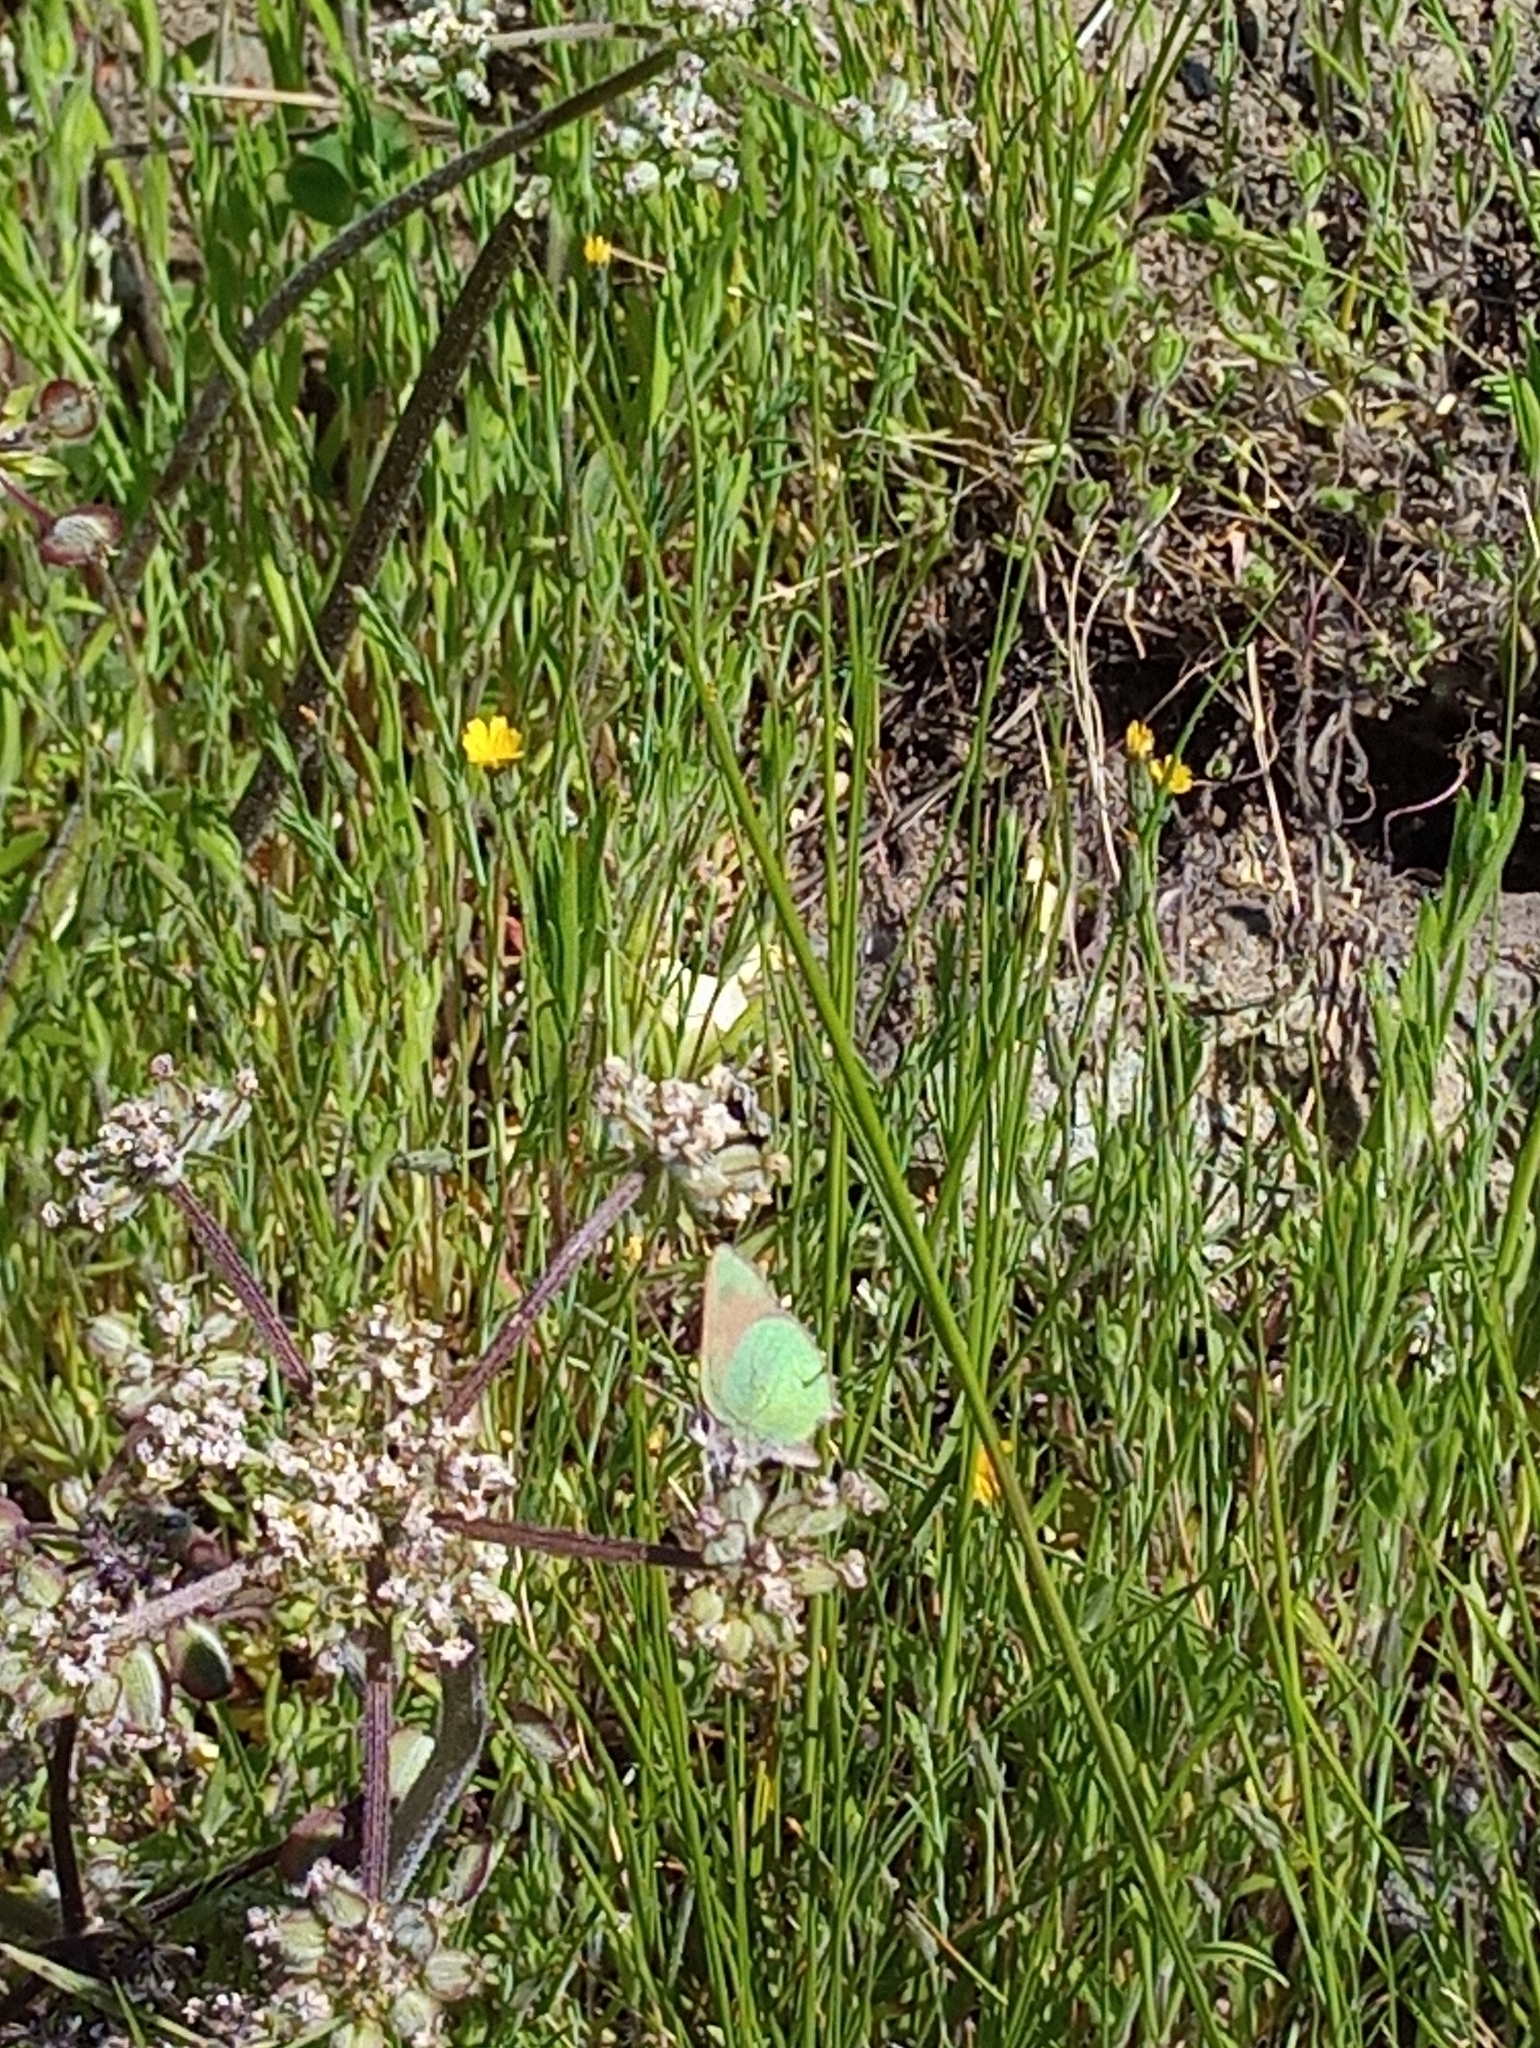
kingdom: Animalia
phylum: Arthropoda
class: Insecta
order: Lepidoptera
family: Lycaenidae
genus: Callophrys
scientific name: Callophrys dumetorum
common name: Bramble hairstreak
